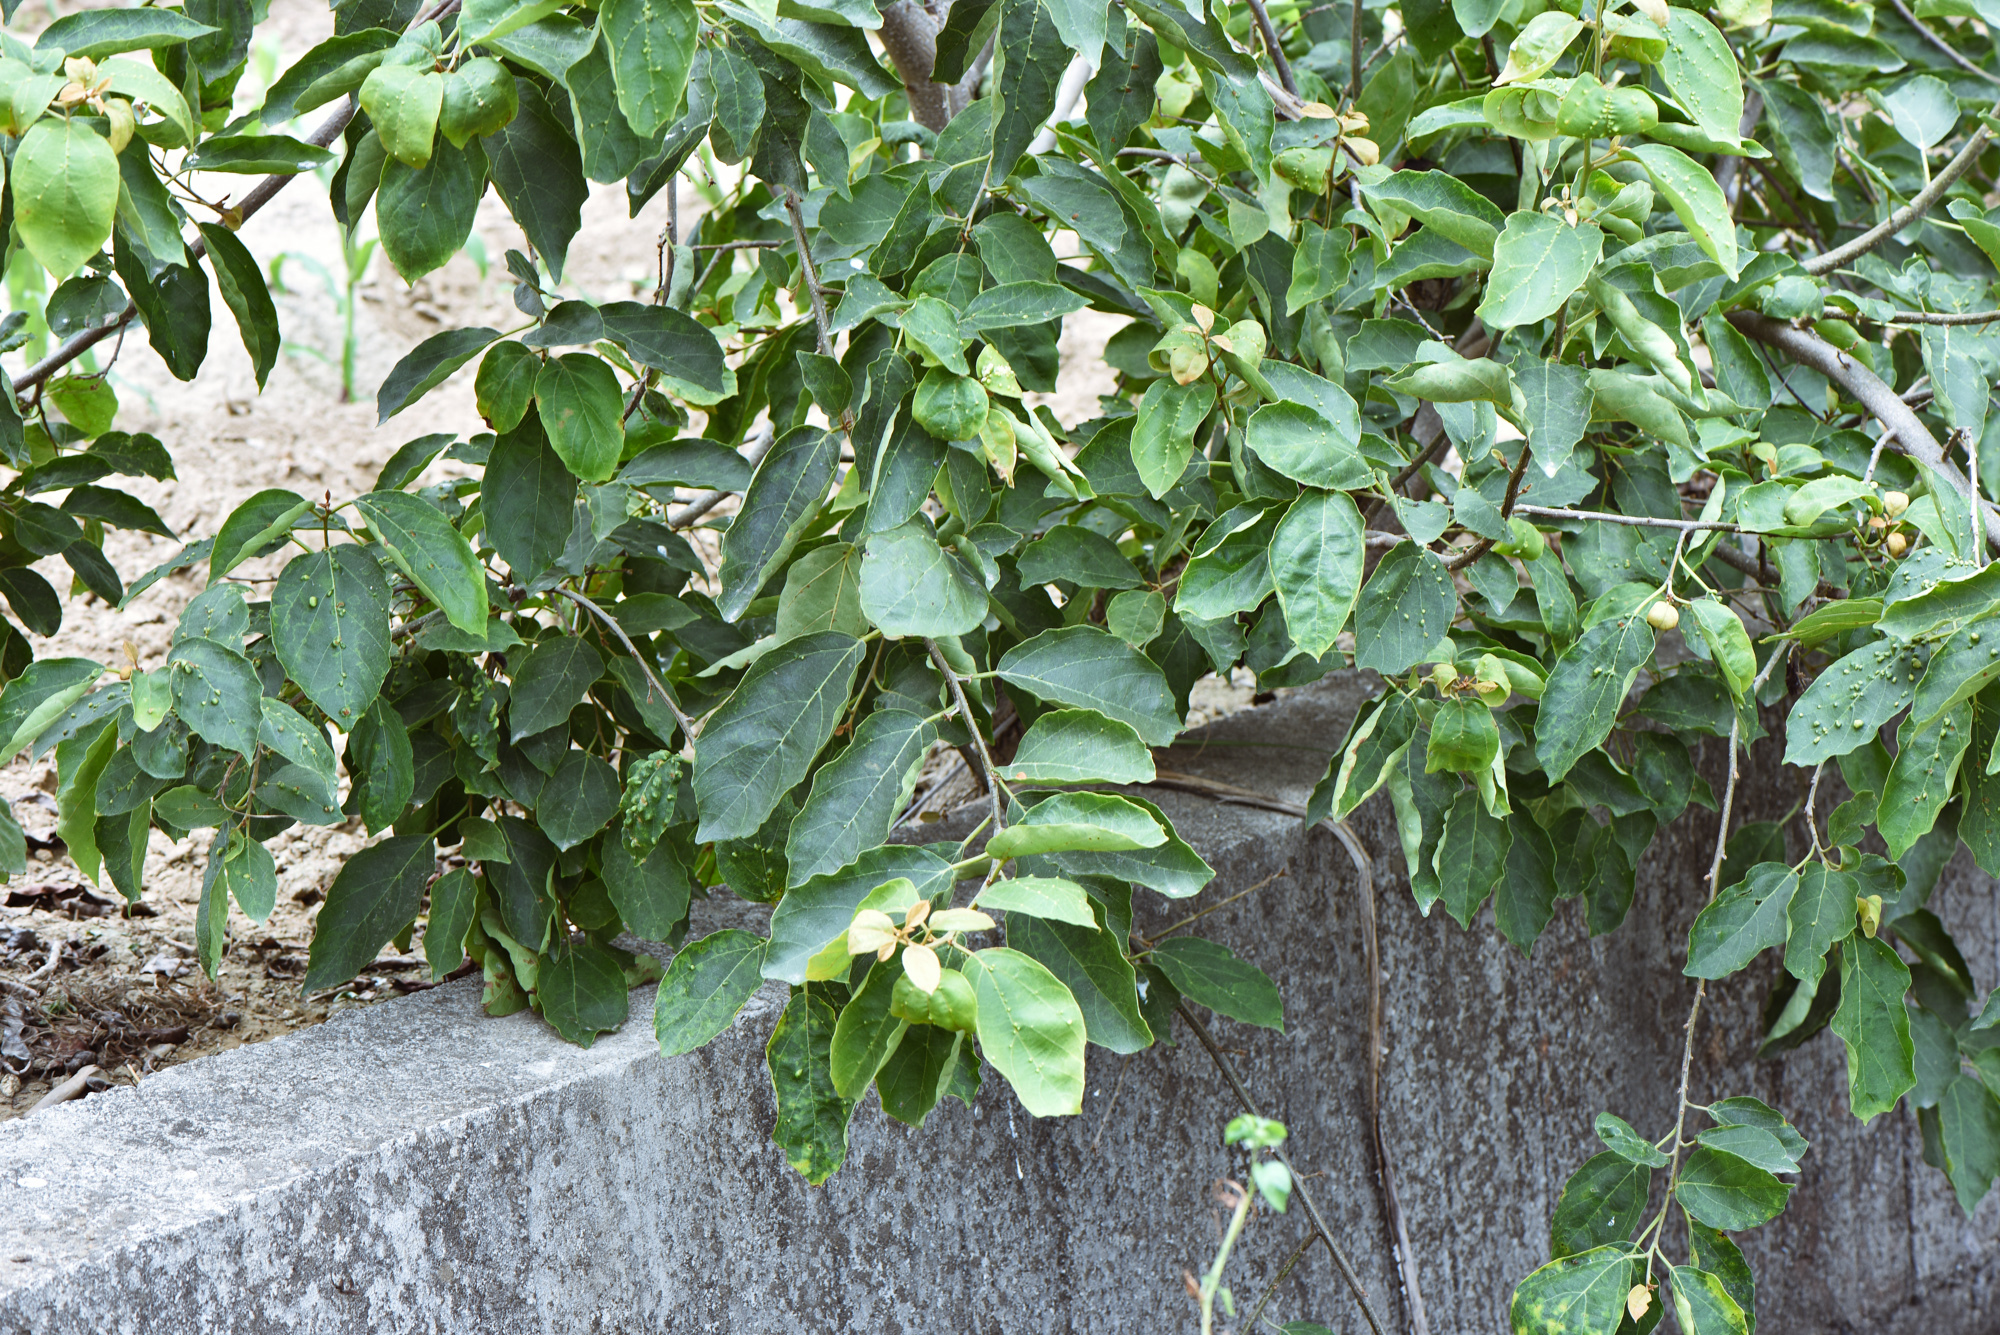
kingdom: Plantae
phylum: Tracheophyta
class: Magnoliopsida
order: Boraginales
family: Cordiaceae
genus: Cordia
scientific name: Cordia dichotoma
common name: Fragrant manjack
